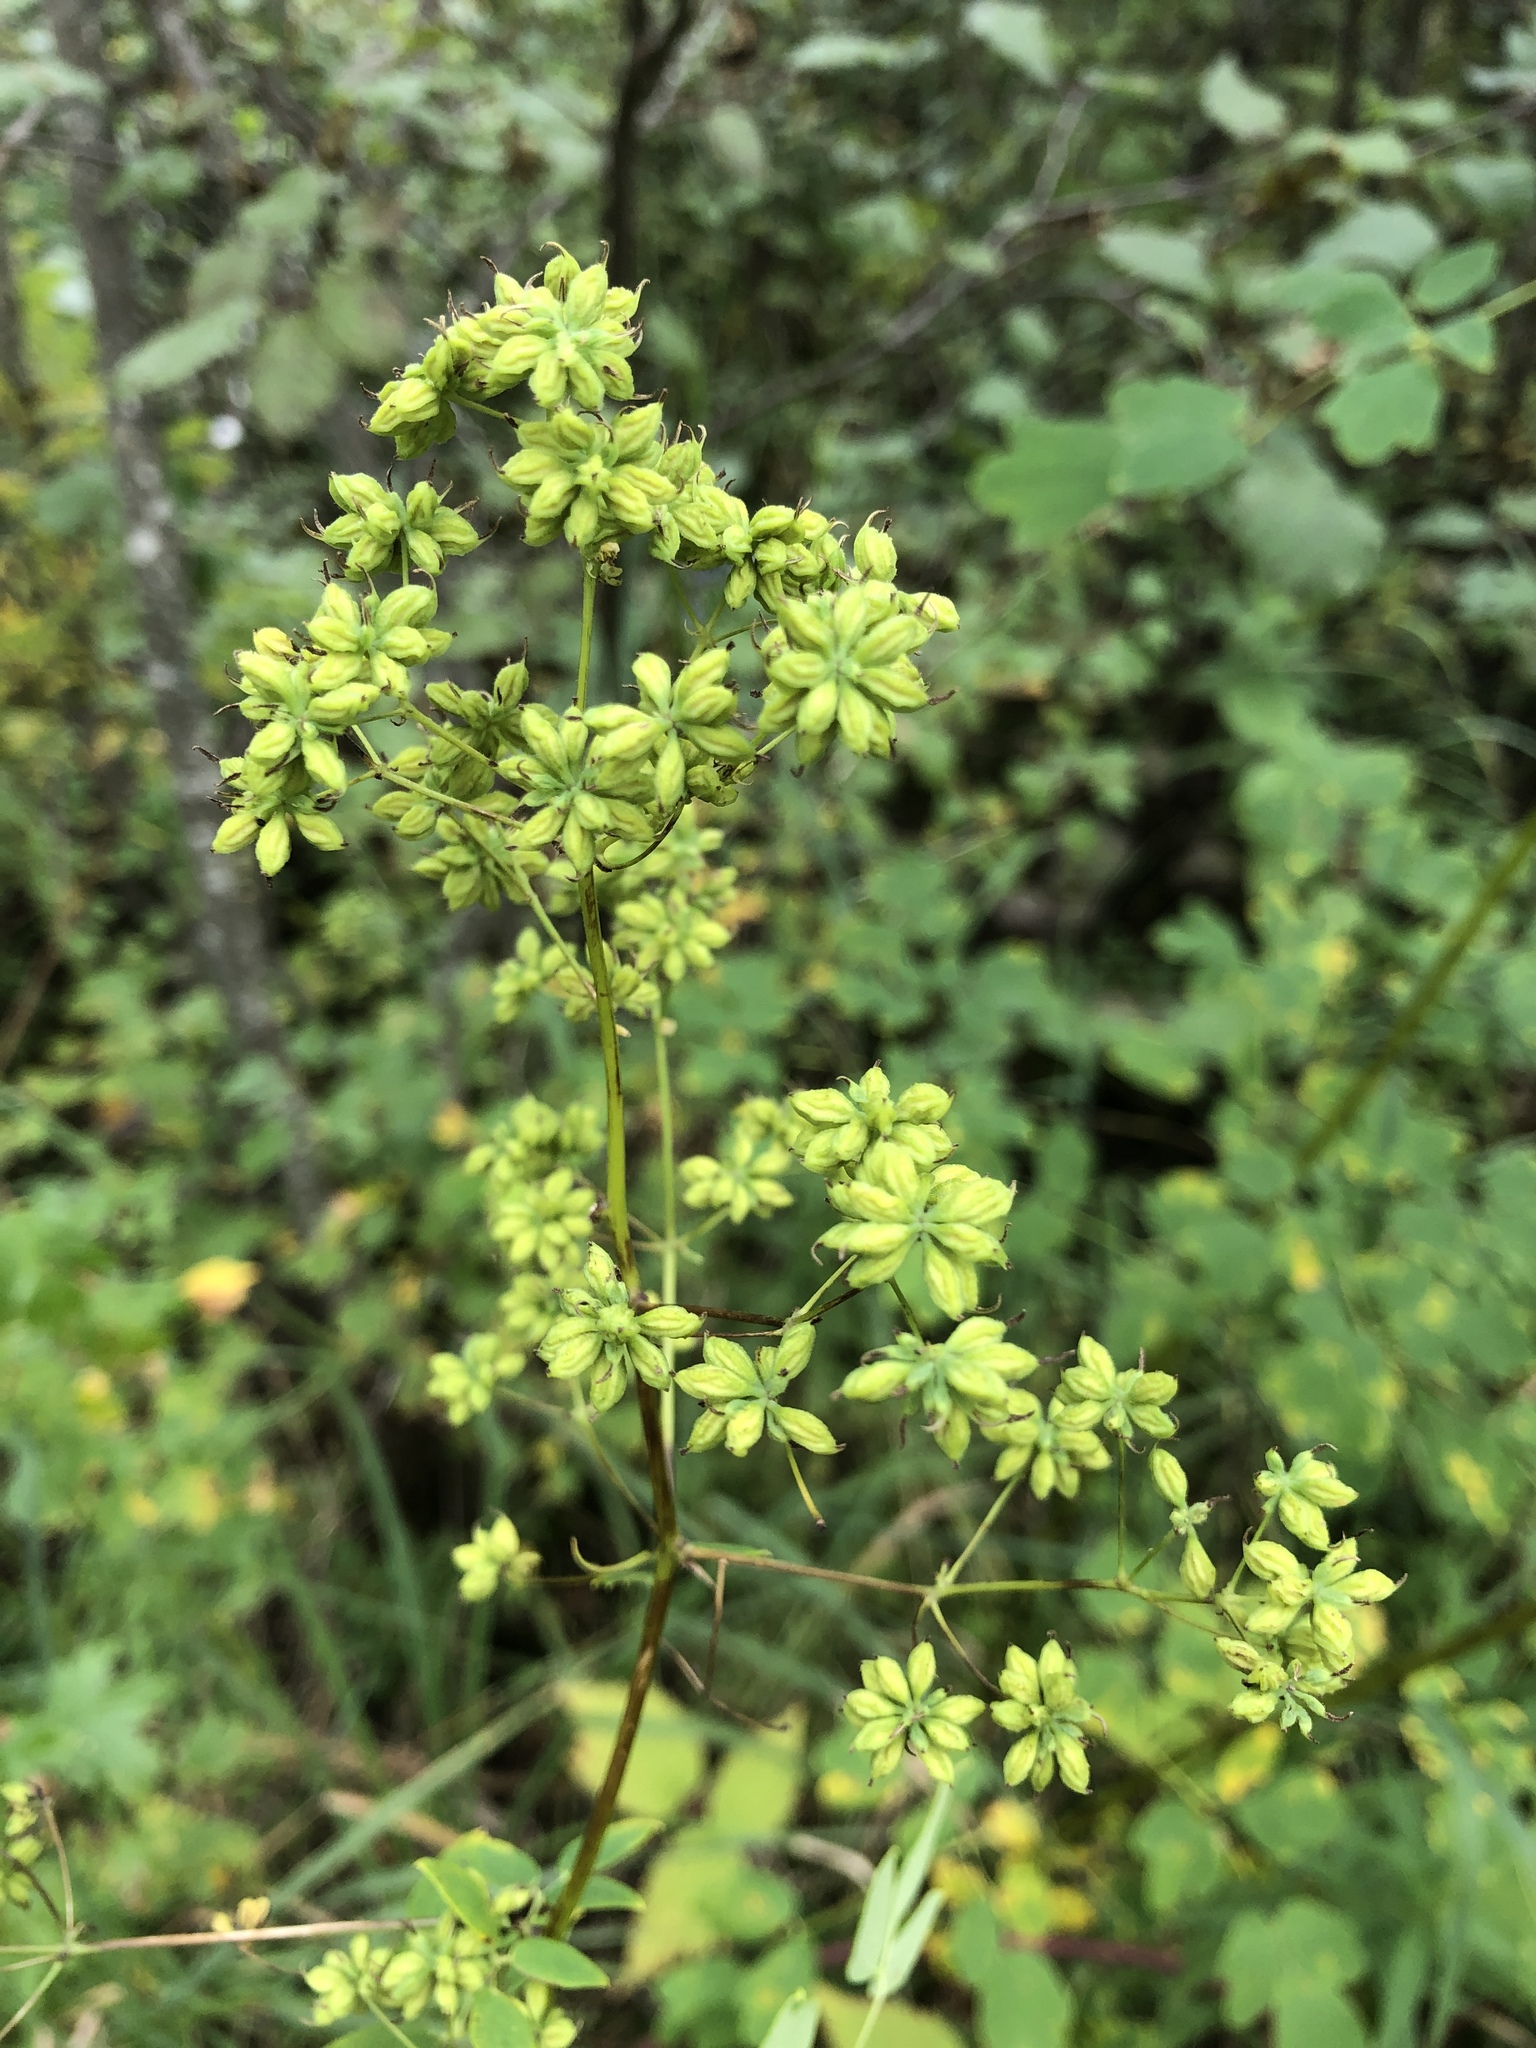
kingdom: Plantae
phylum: Tracheophyta
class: Magnoliopsida
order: Ranunculales
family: Ranunculaceae
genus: Thalictrum
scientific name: Thalictrum dasycarpum
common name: Purple meadow-rue
